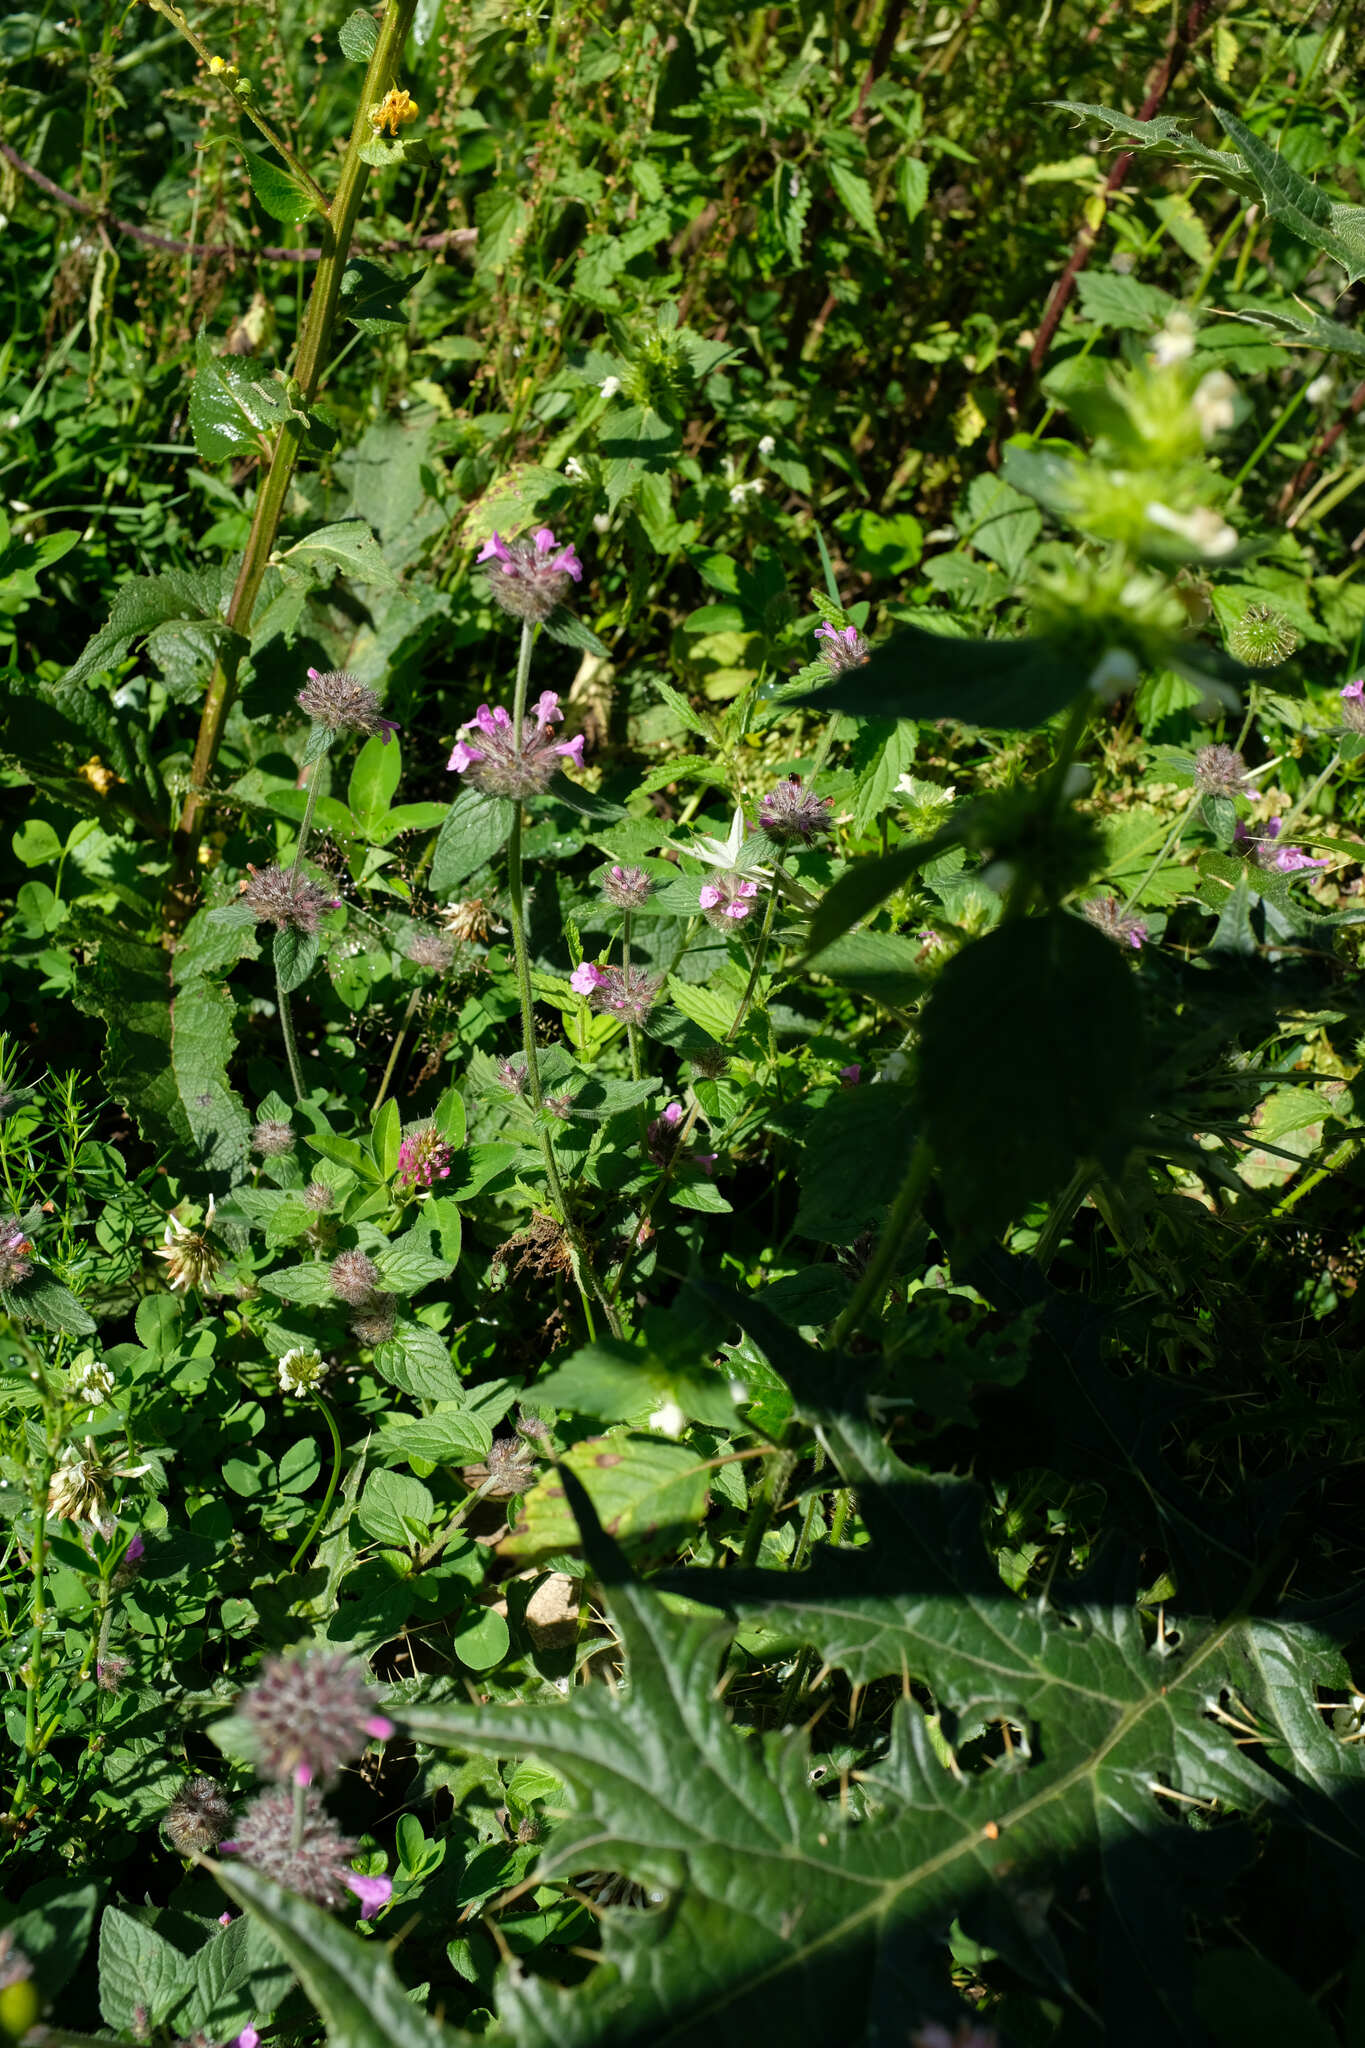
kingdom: Plantae
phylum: Tracheophyta
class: Magnoliopsida
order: Lamiales
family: Lamiaceae
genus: Clinopodium
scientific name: Clinopodium caucasicum
